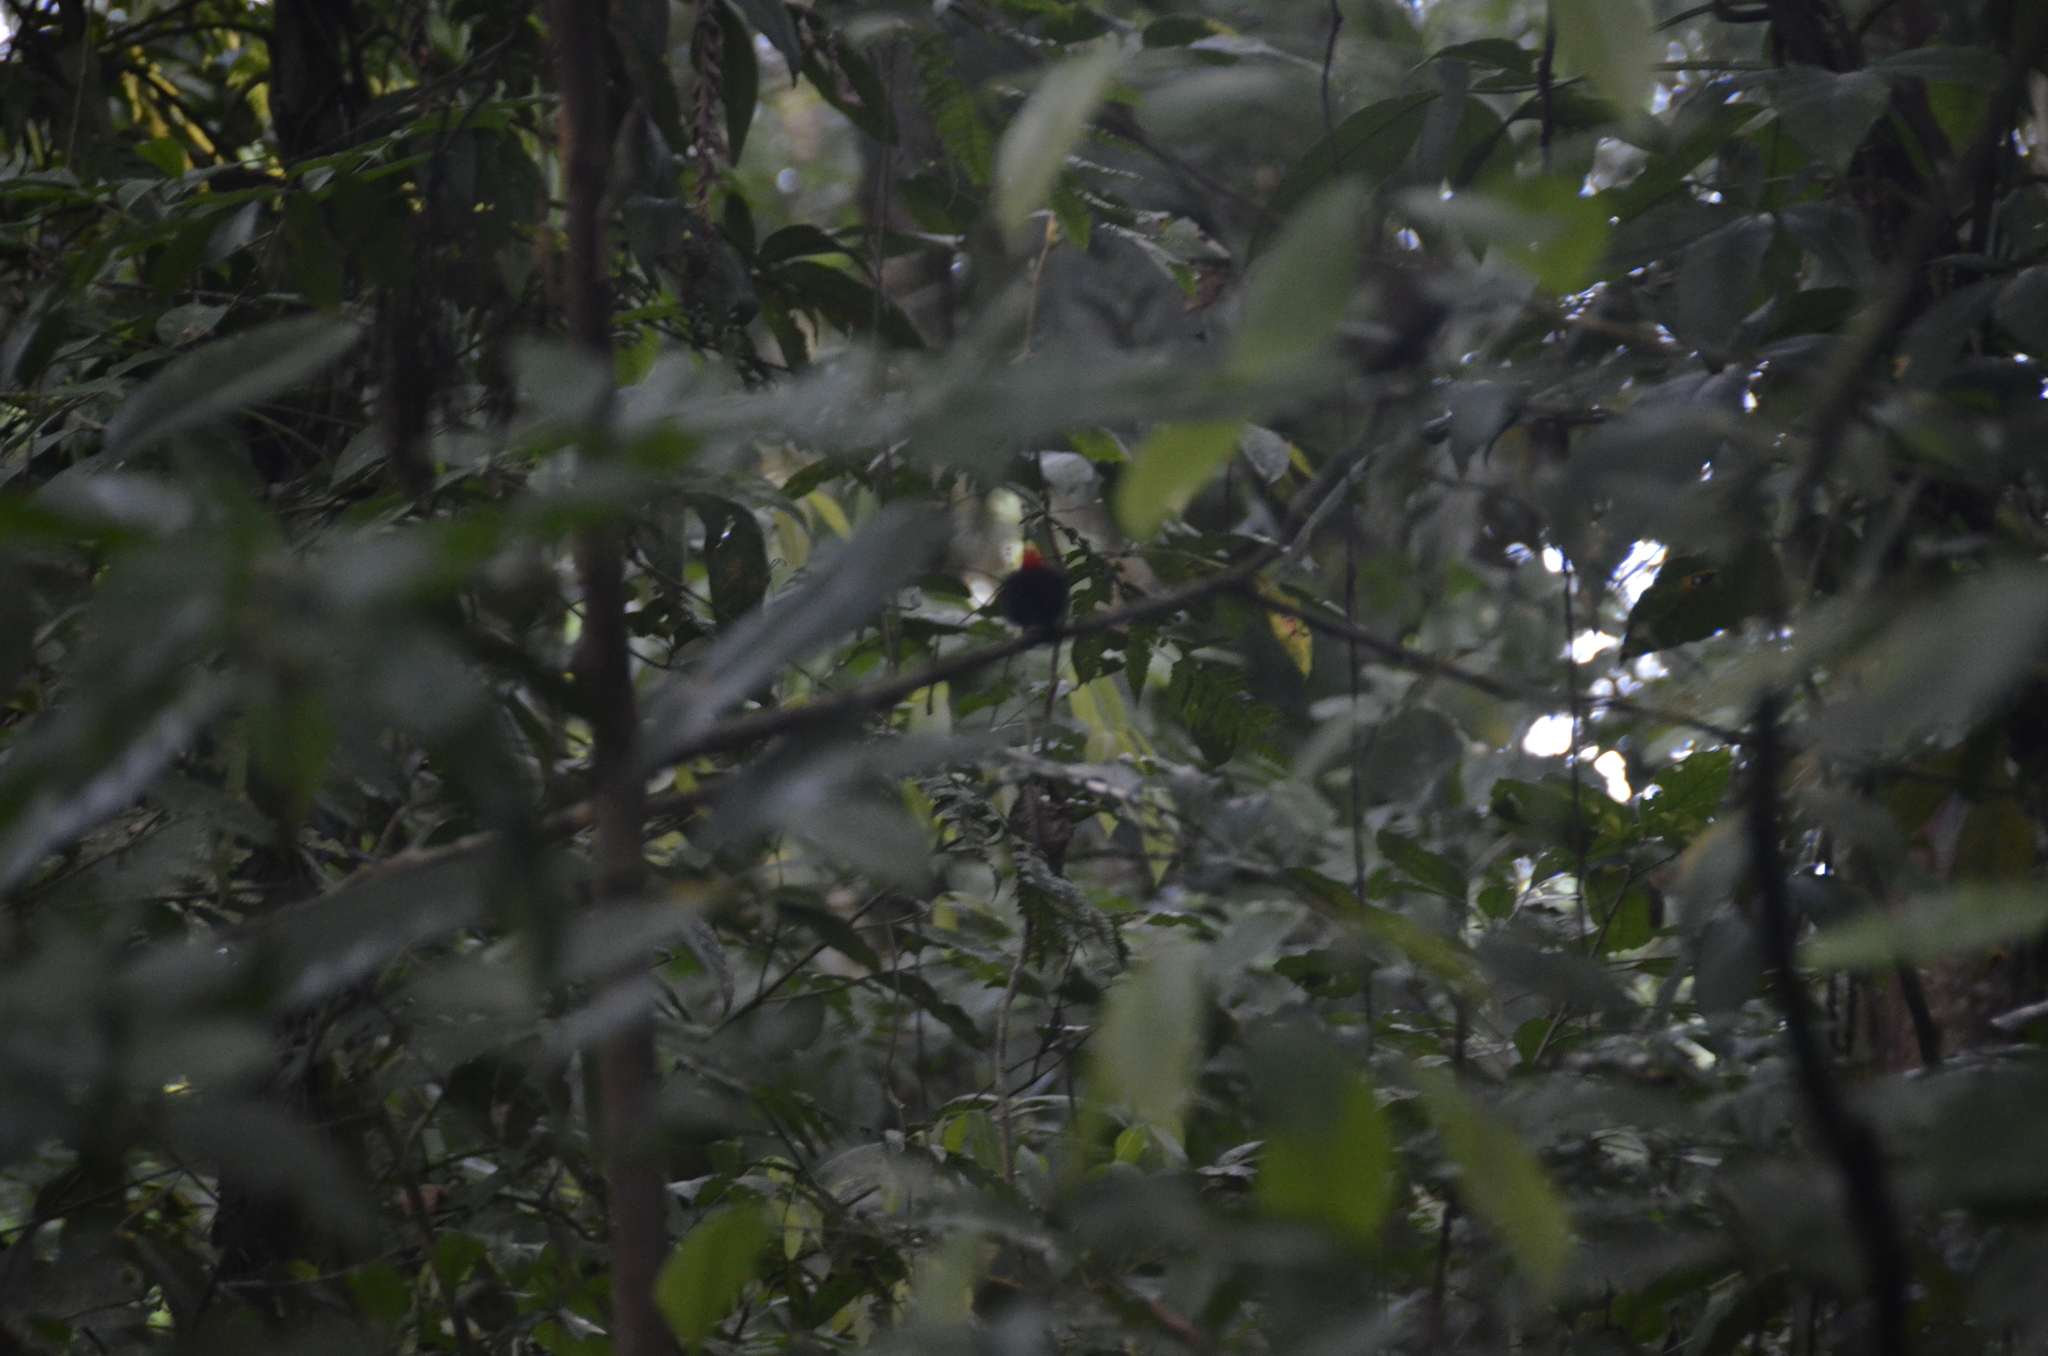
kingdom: Animalia
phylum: Chordata
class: Aves
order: Passeriformes
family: Pipridae
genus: Pipra
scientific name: Pipra mentalis
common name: Red-capped manakin
